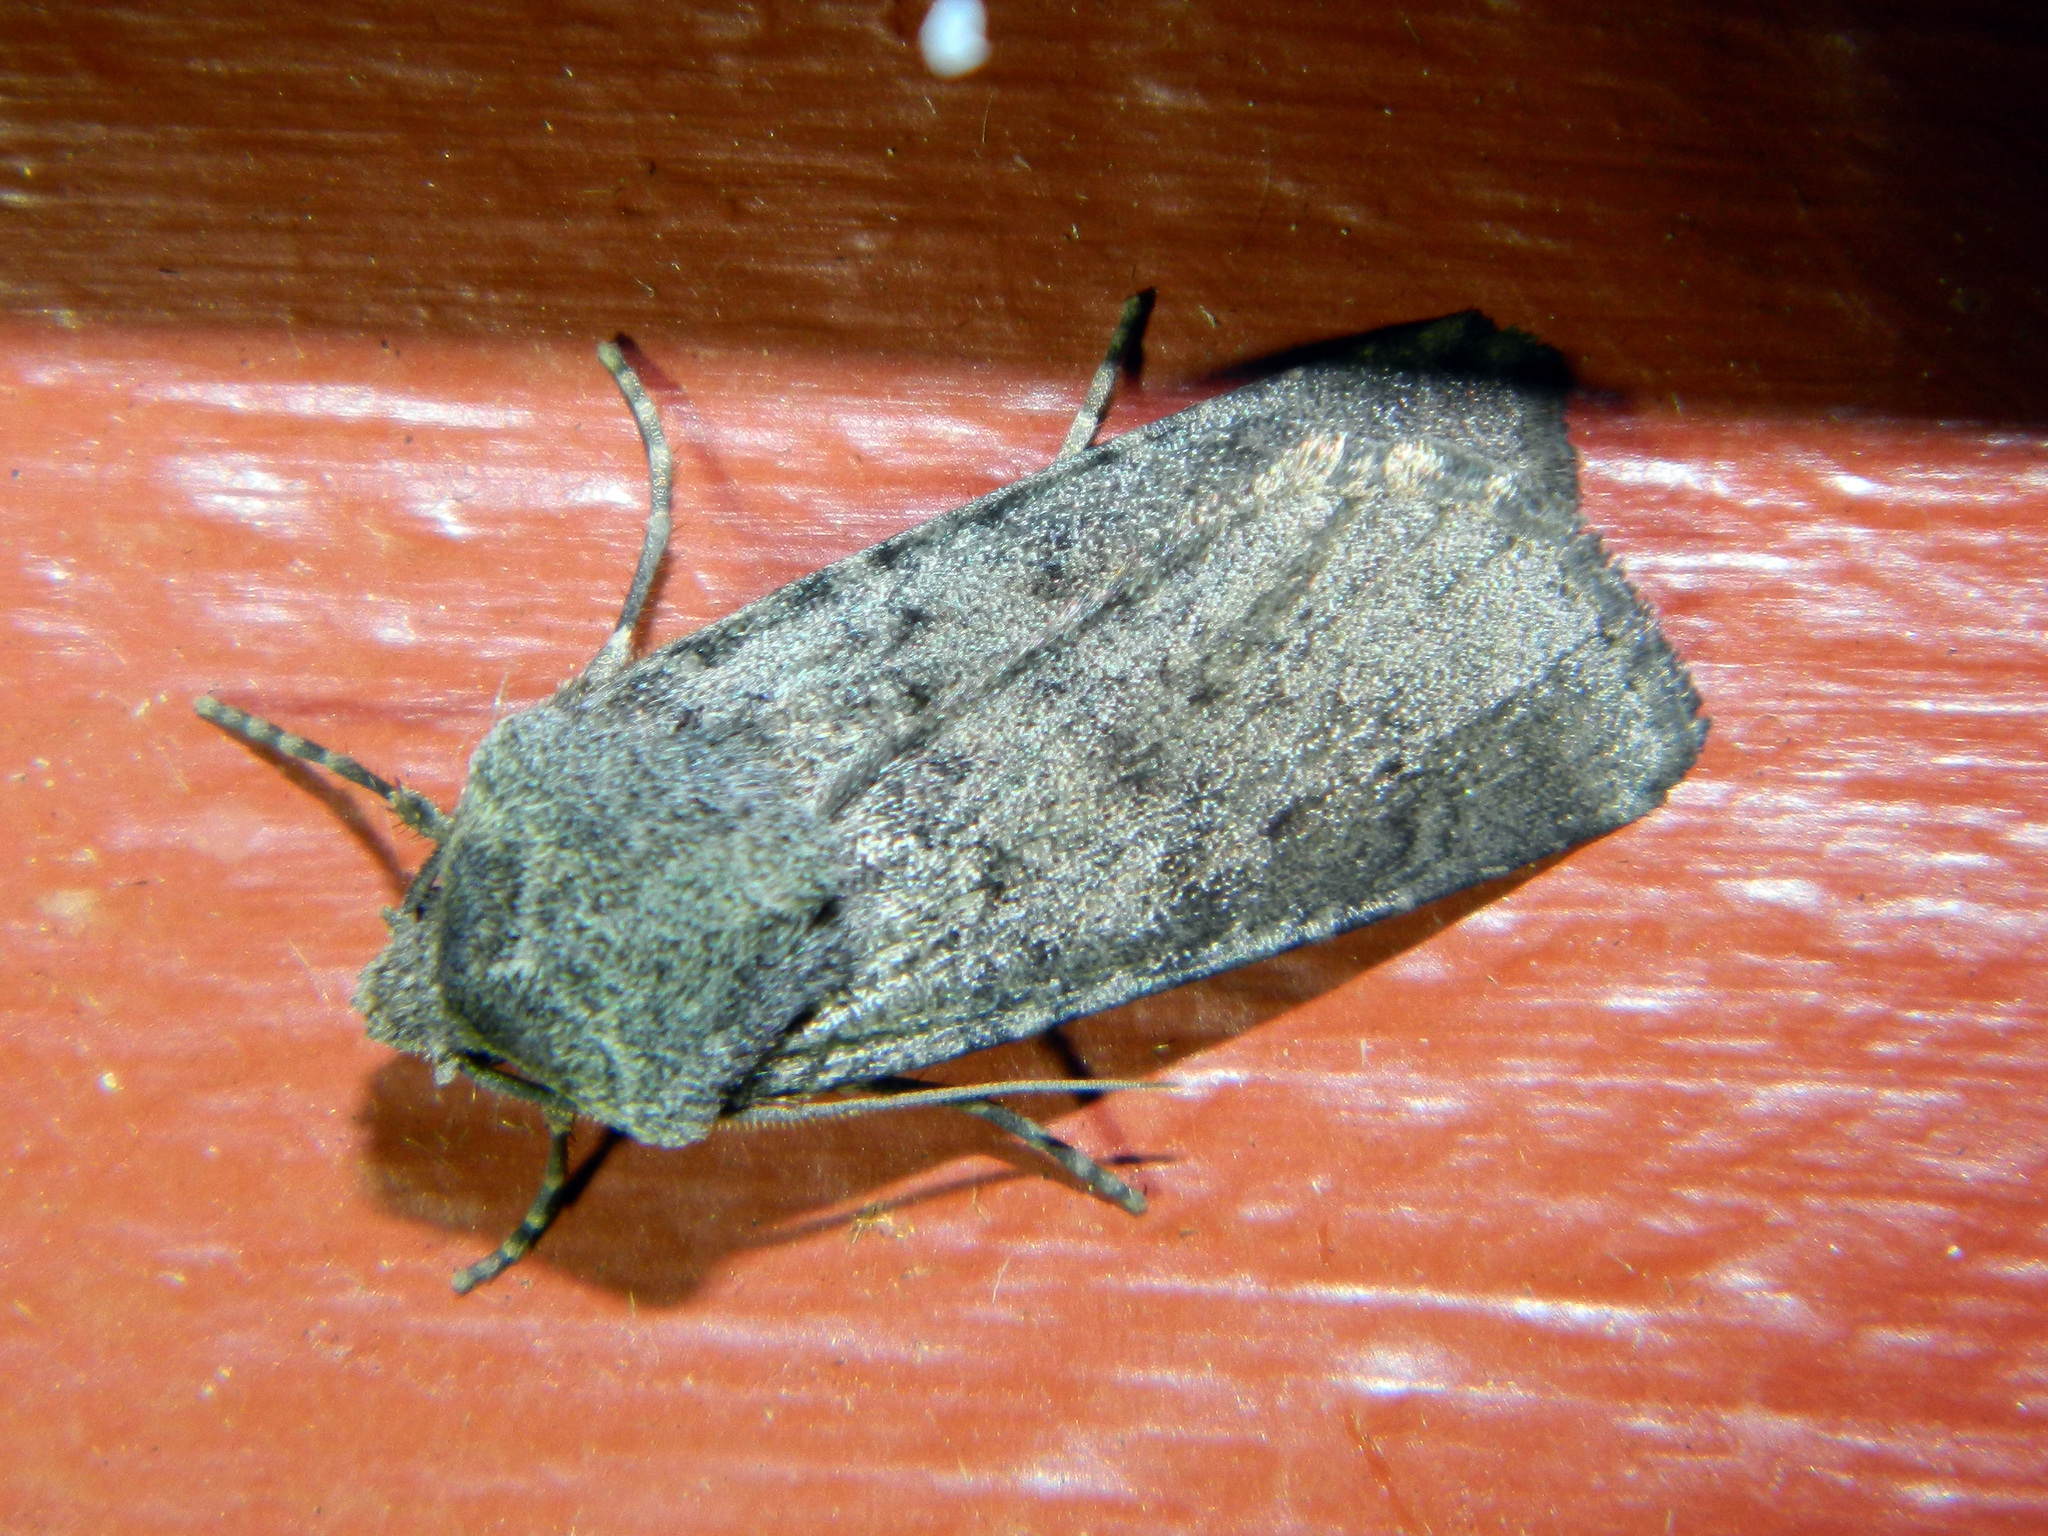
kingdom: Animalia
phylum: Arthropoda
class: Insecta
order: Lepidoptera
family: Noctuidae
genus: Euxoa
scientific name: Euxoa comosa
